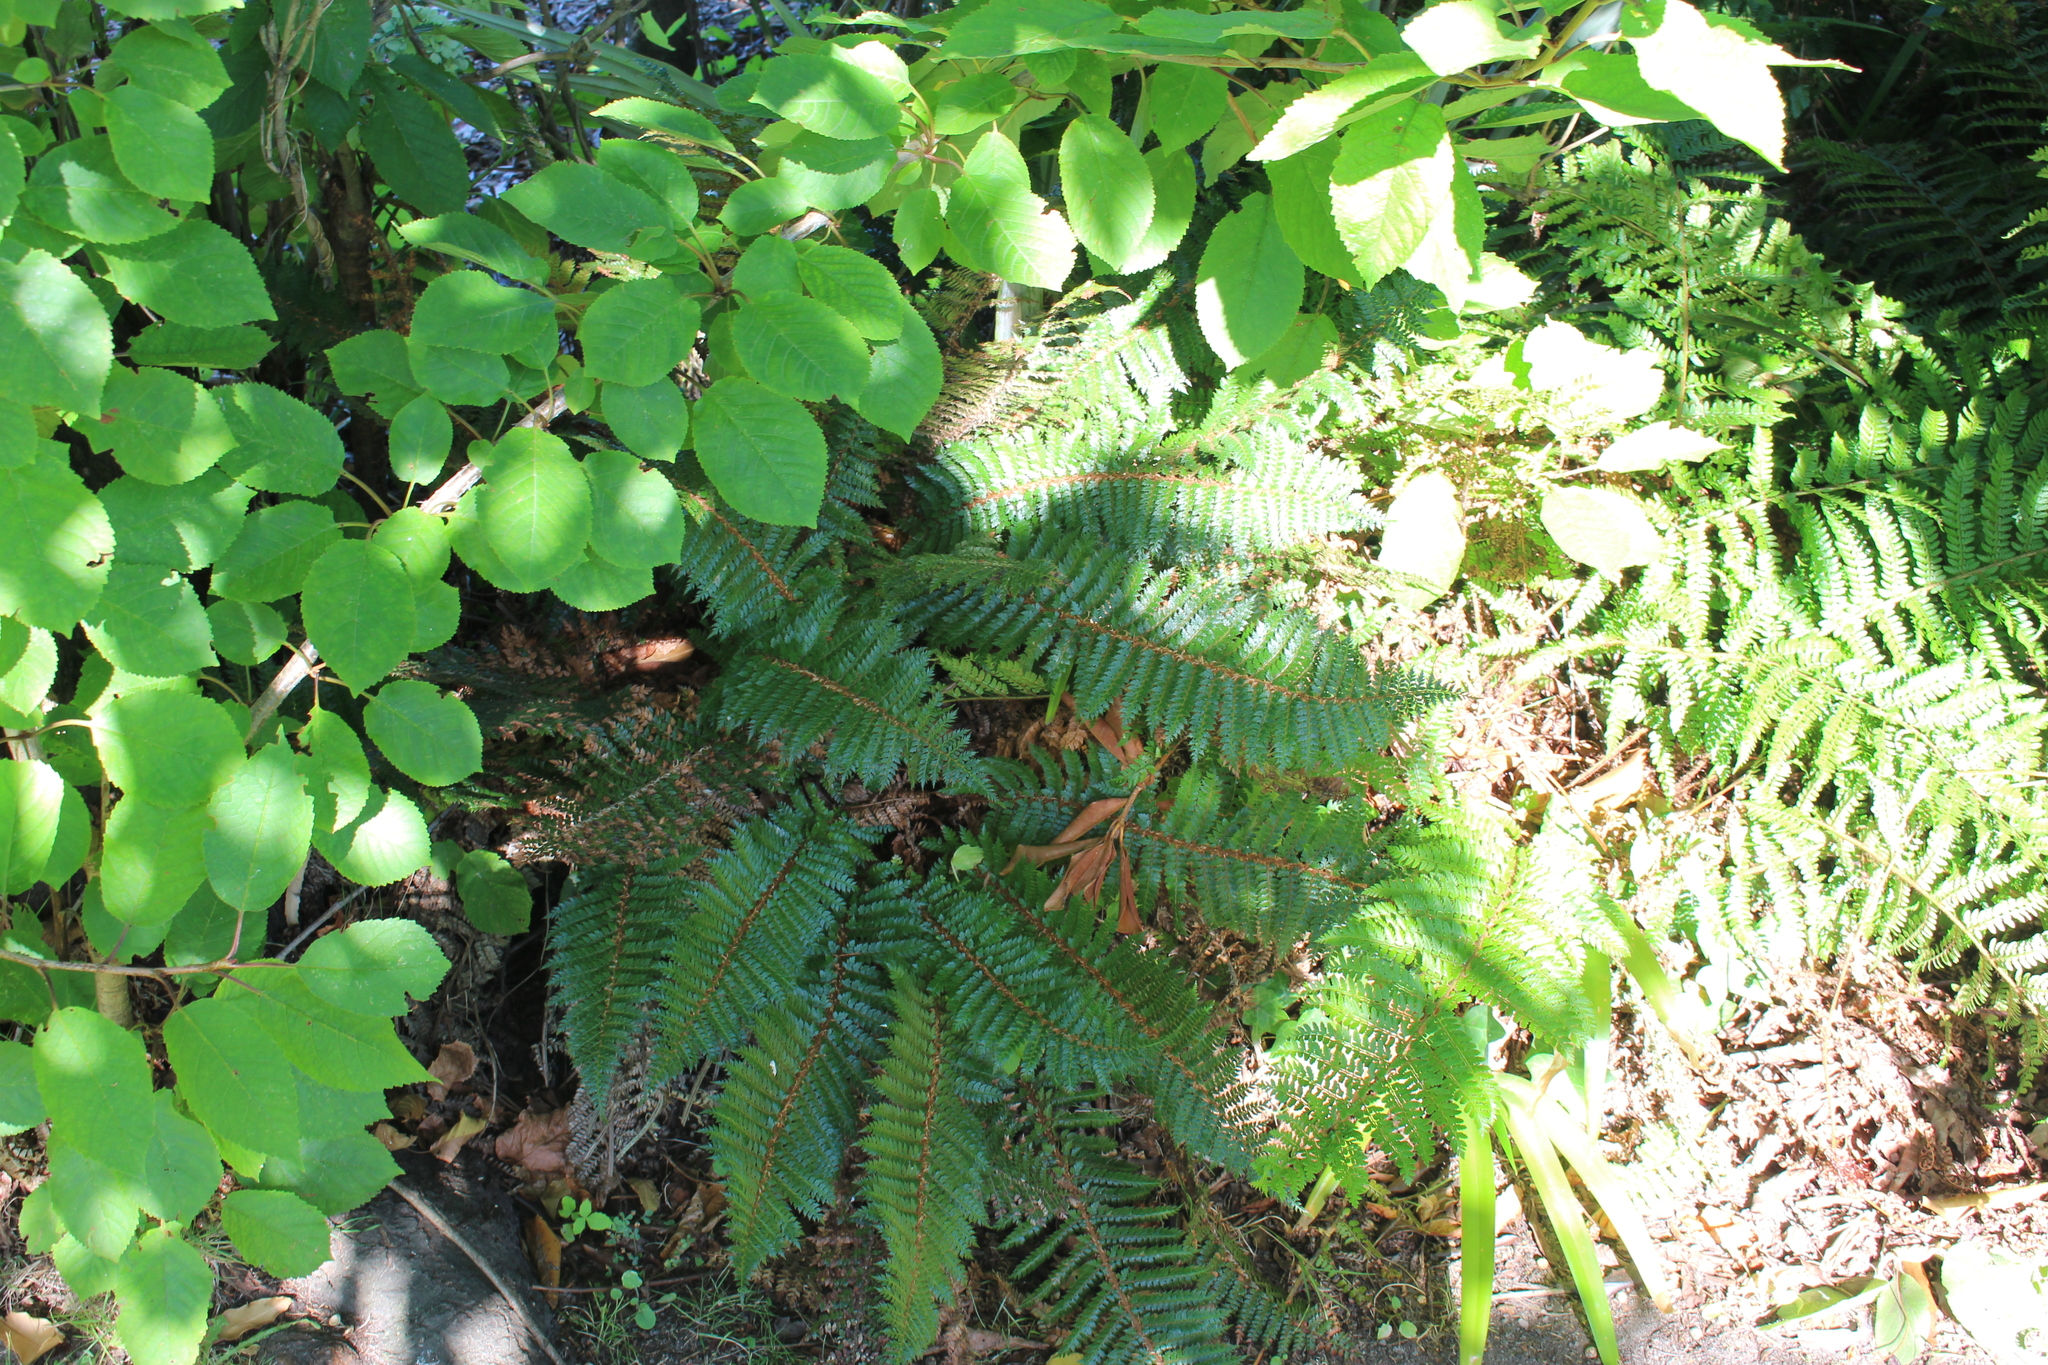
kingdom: Plantae
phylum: Tracheophyta
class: Polypodiopsida
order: Polypodiales
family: Dryopteridaceae
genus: Polystichum
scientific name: Polystichum vestitum
